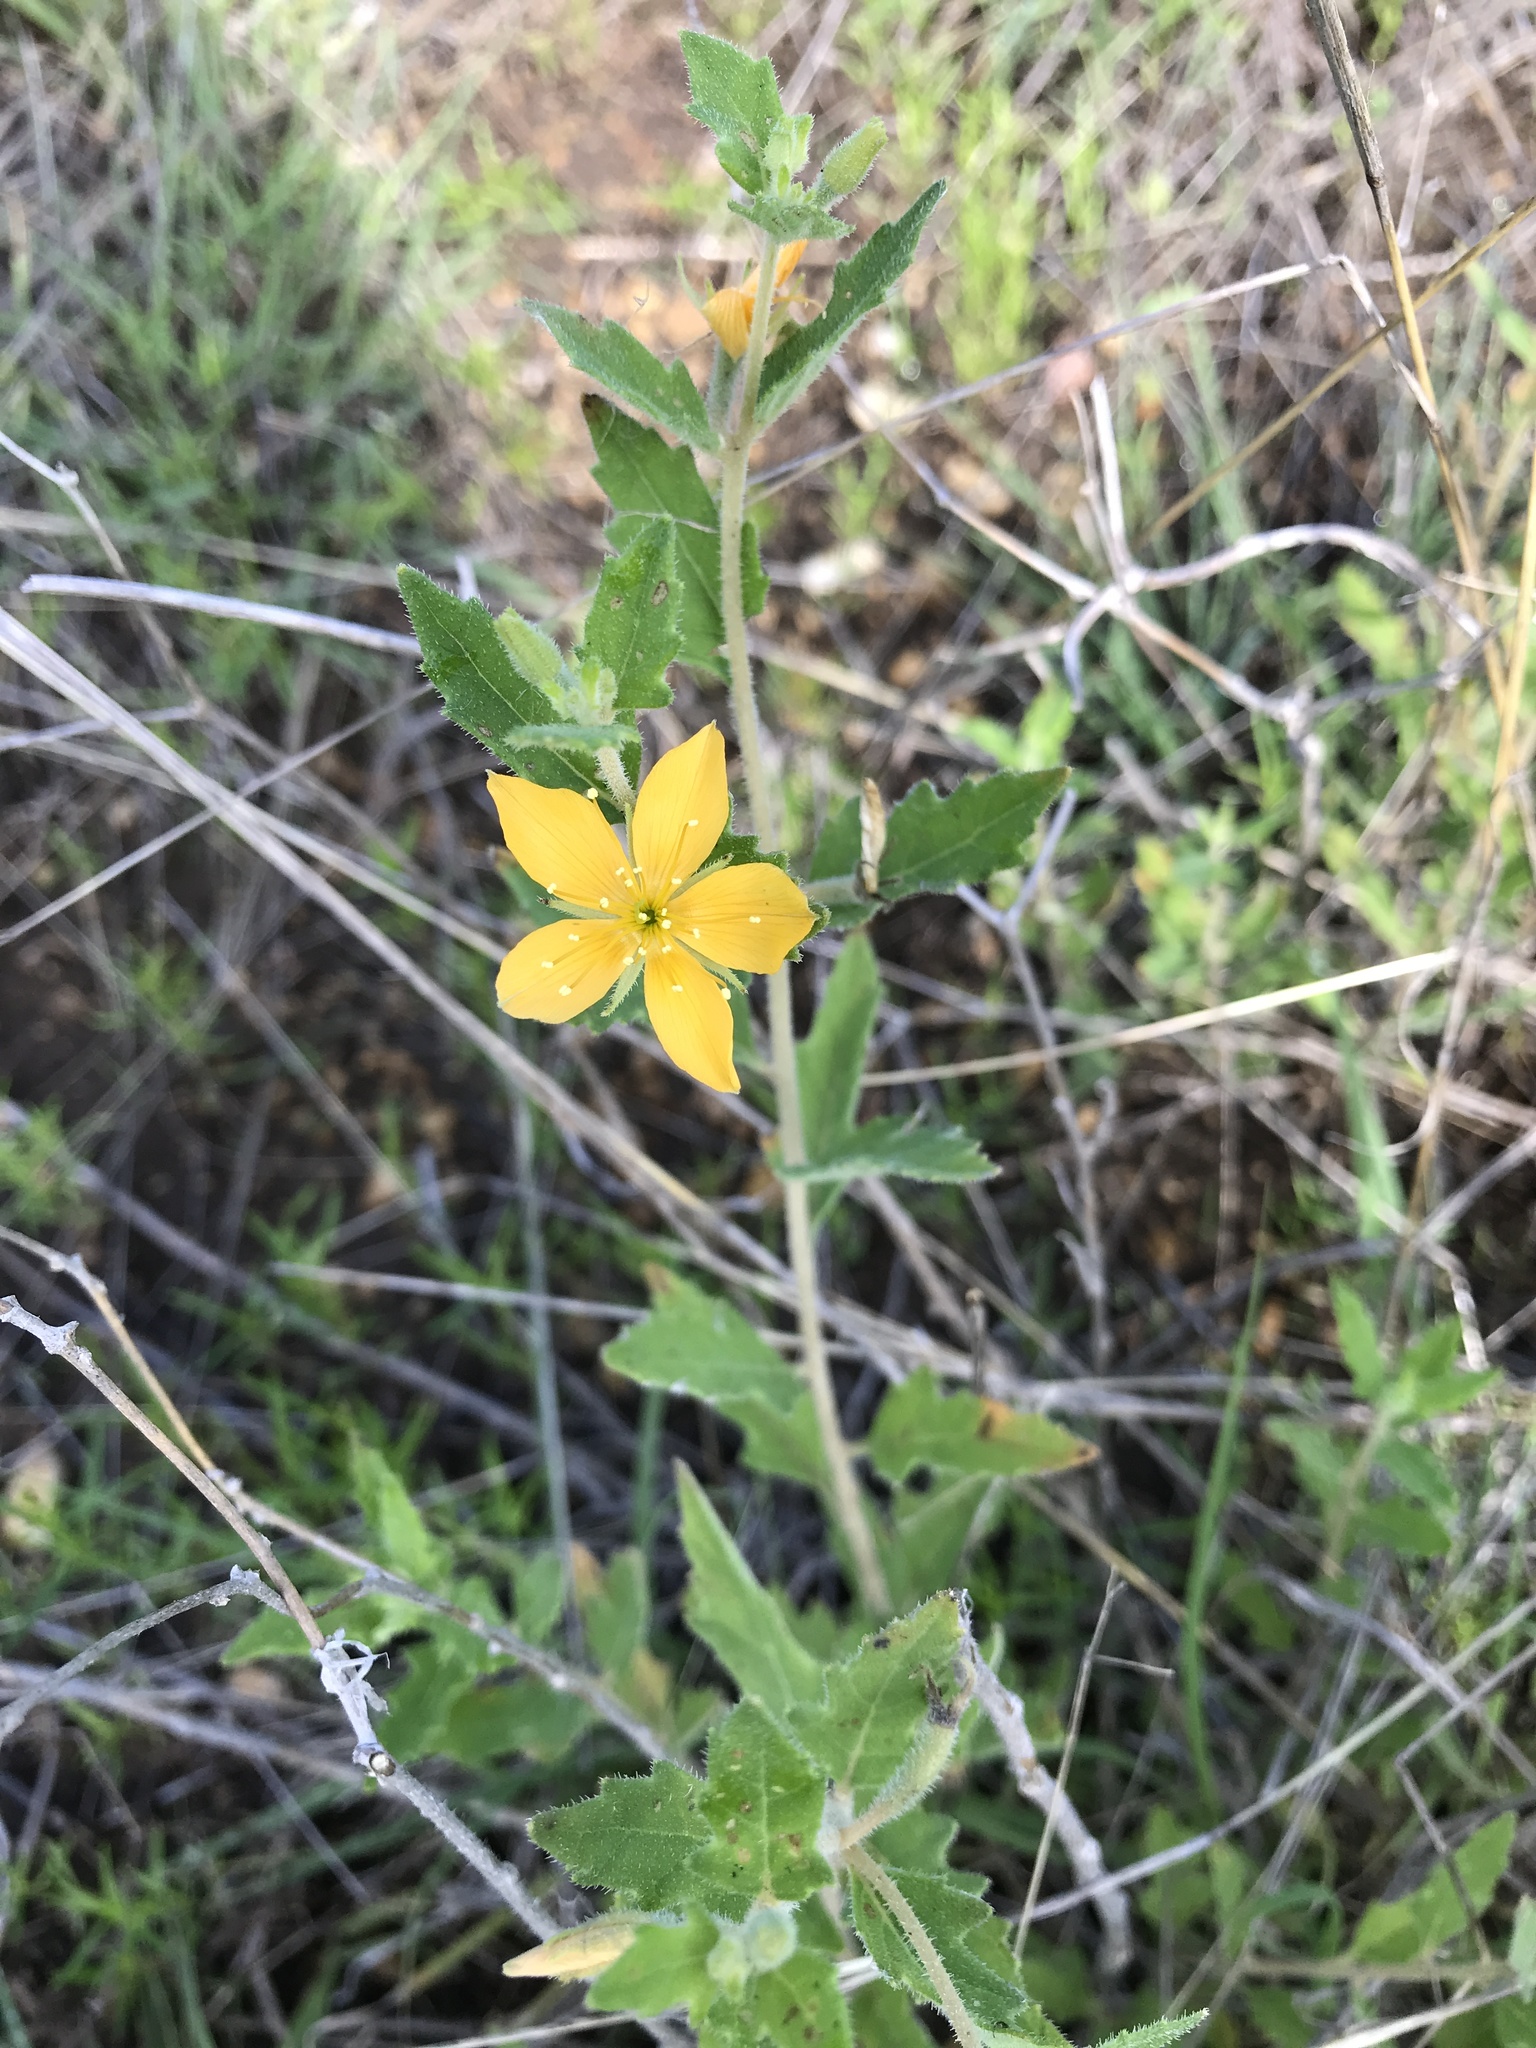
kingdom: Plantae
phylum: Tracheophyta
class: Magnoliopsida
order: Cornales
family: Loasaceae
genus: Mentzelia
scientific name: Mentzelia oligosperma
